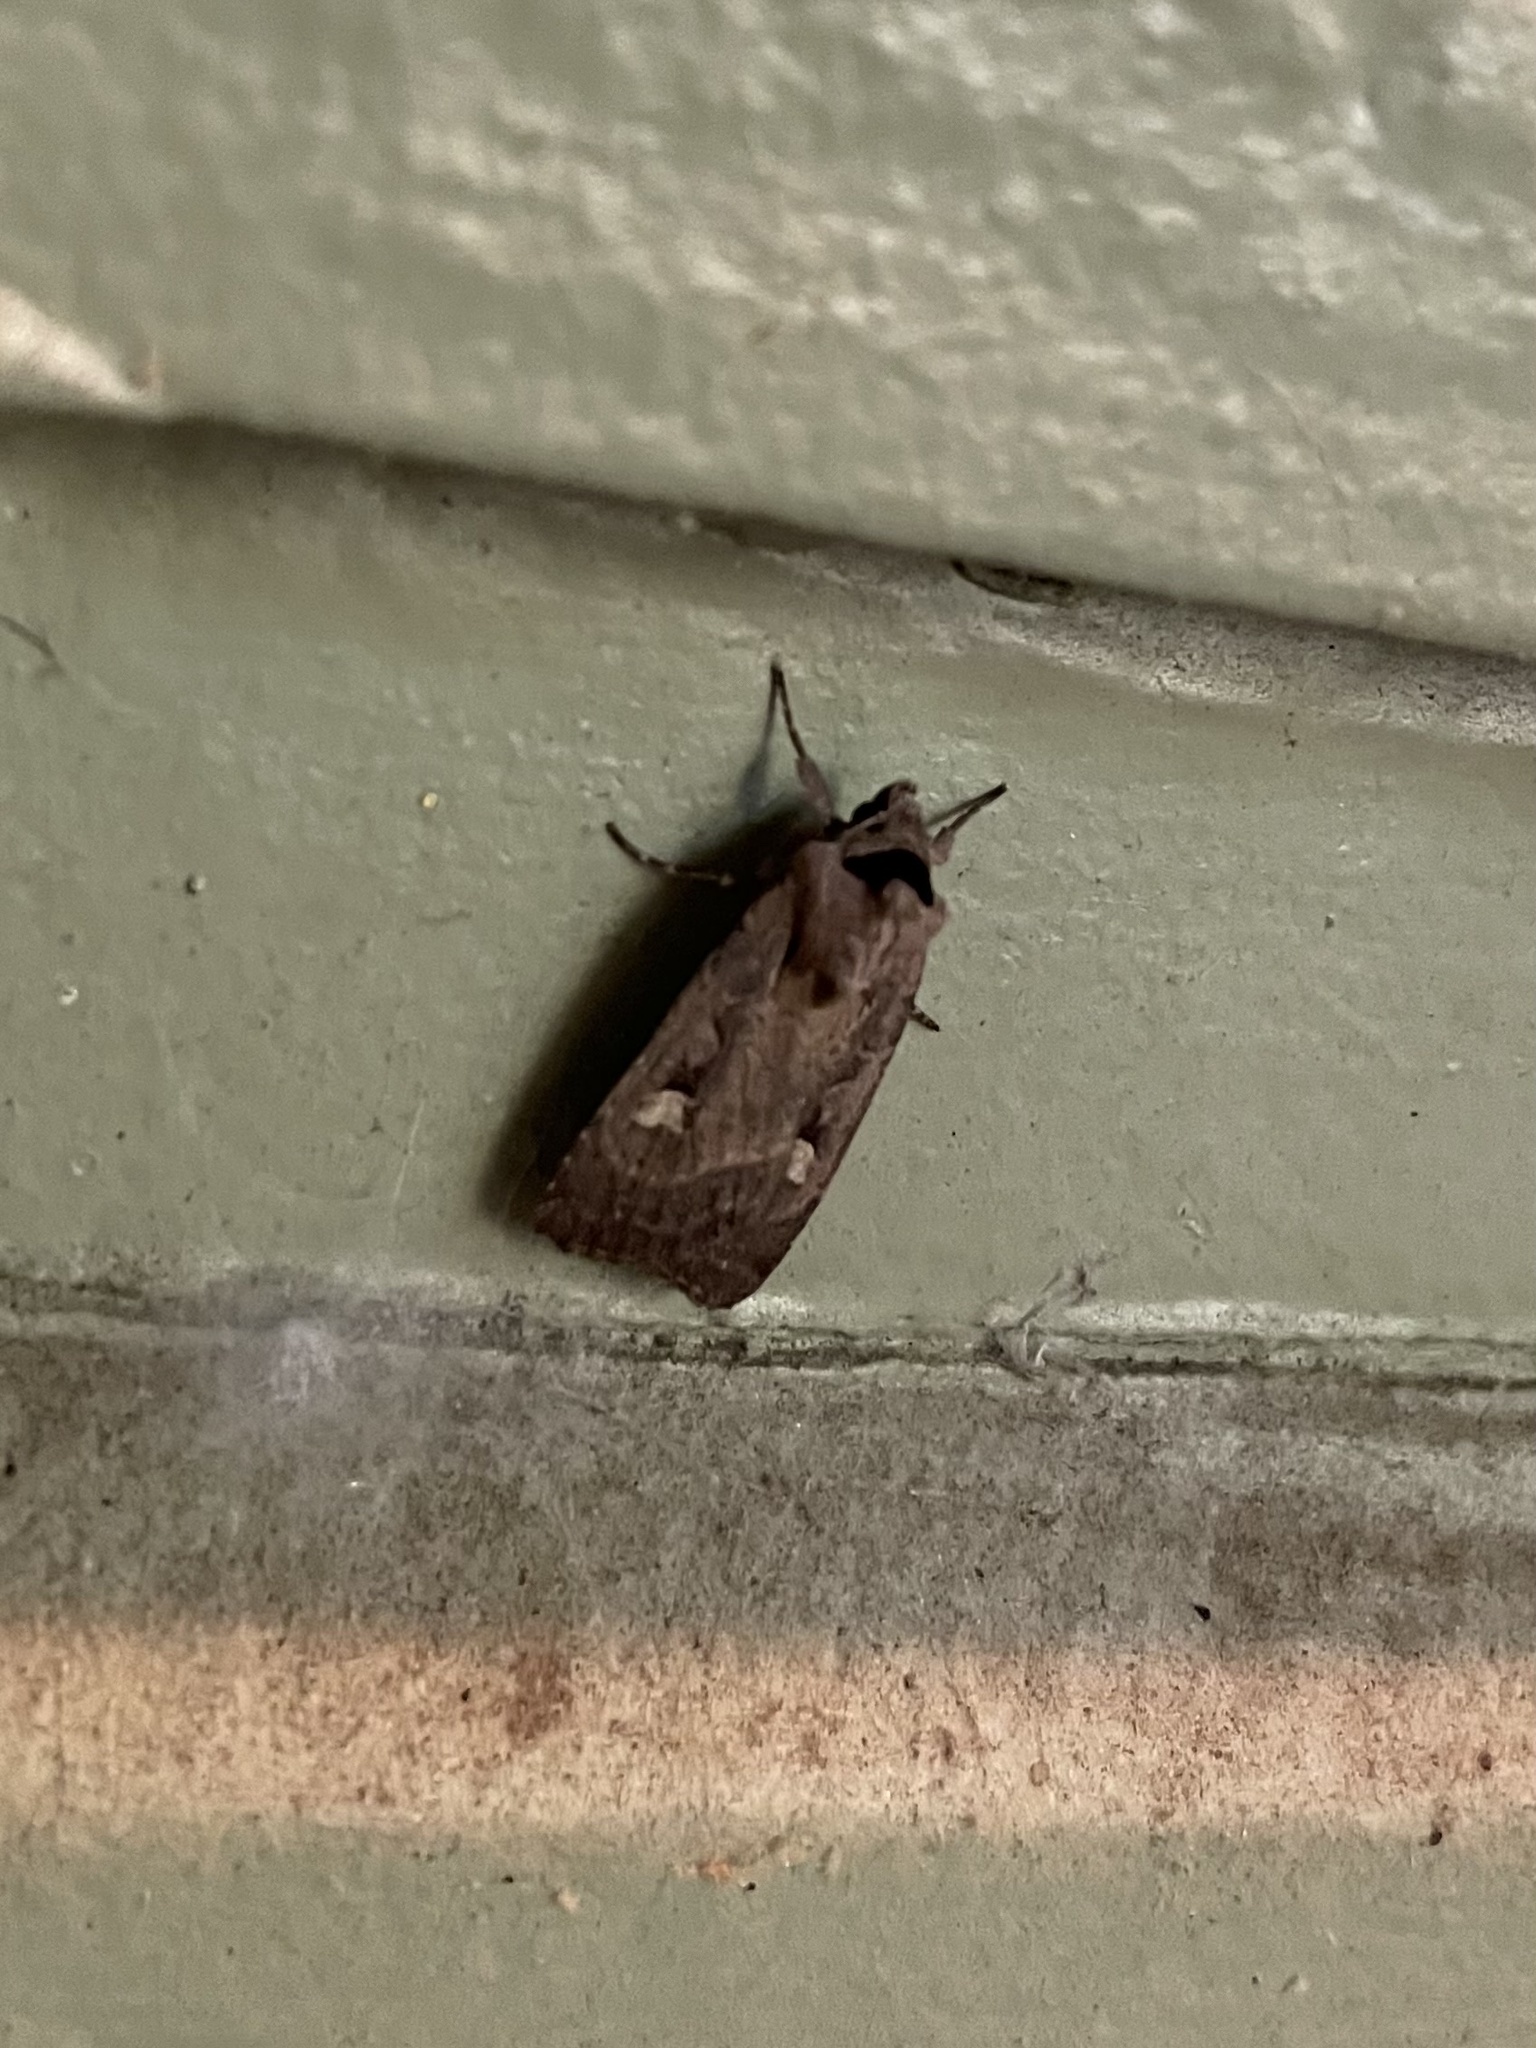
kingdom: Animalia
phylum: Arthropoda
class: Insecta
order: Lepidoptera
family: Noctuidae
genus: Adelphagrotis
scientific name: Adelphagrotis indeterminata
